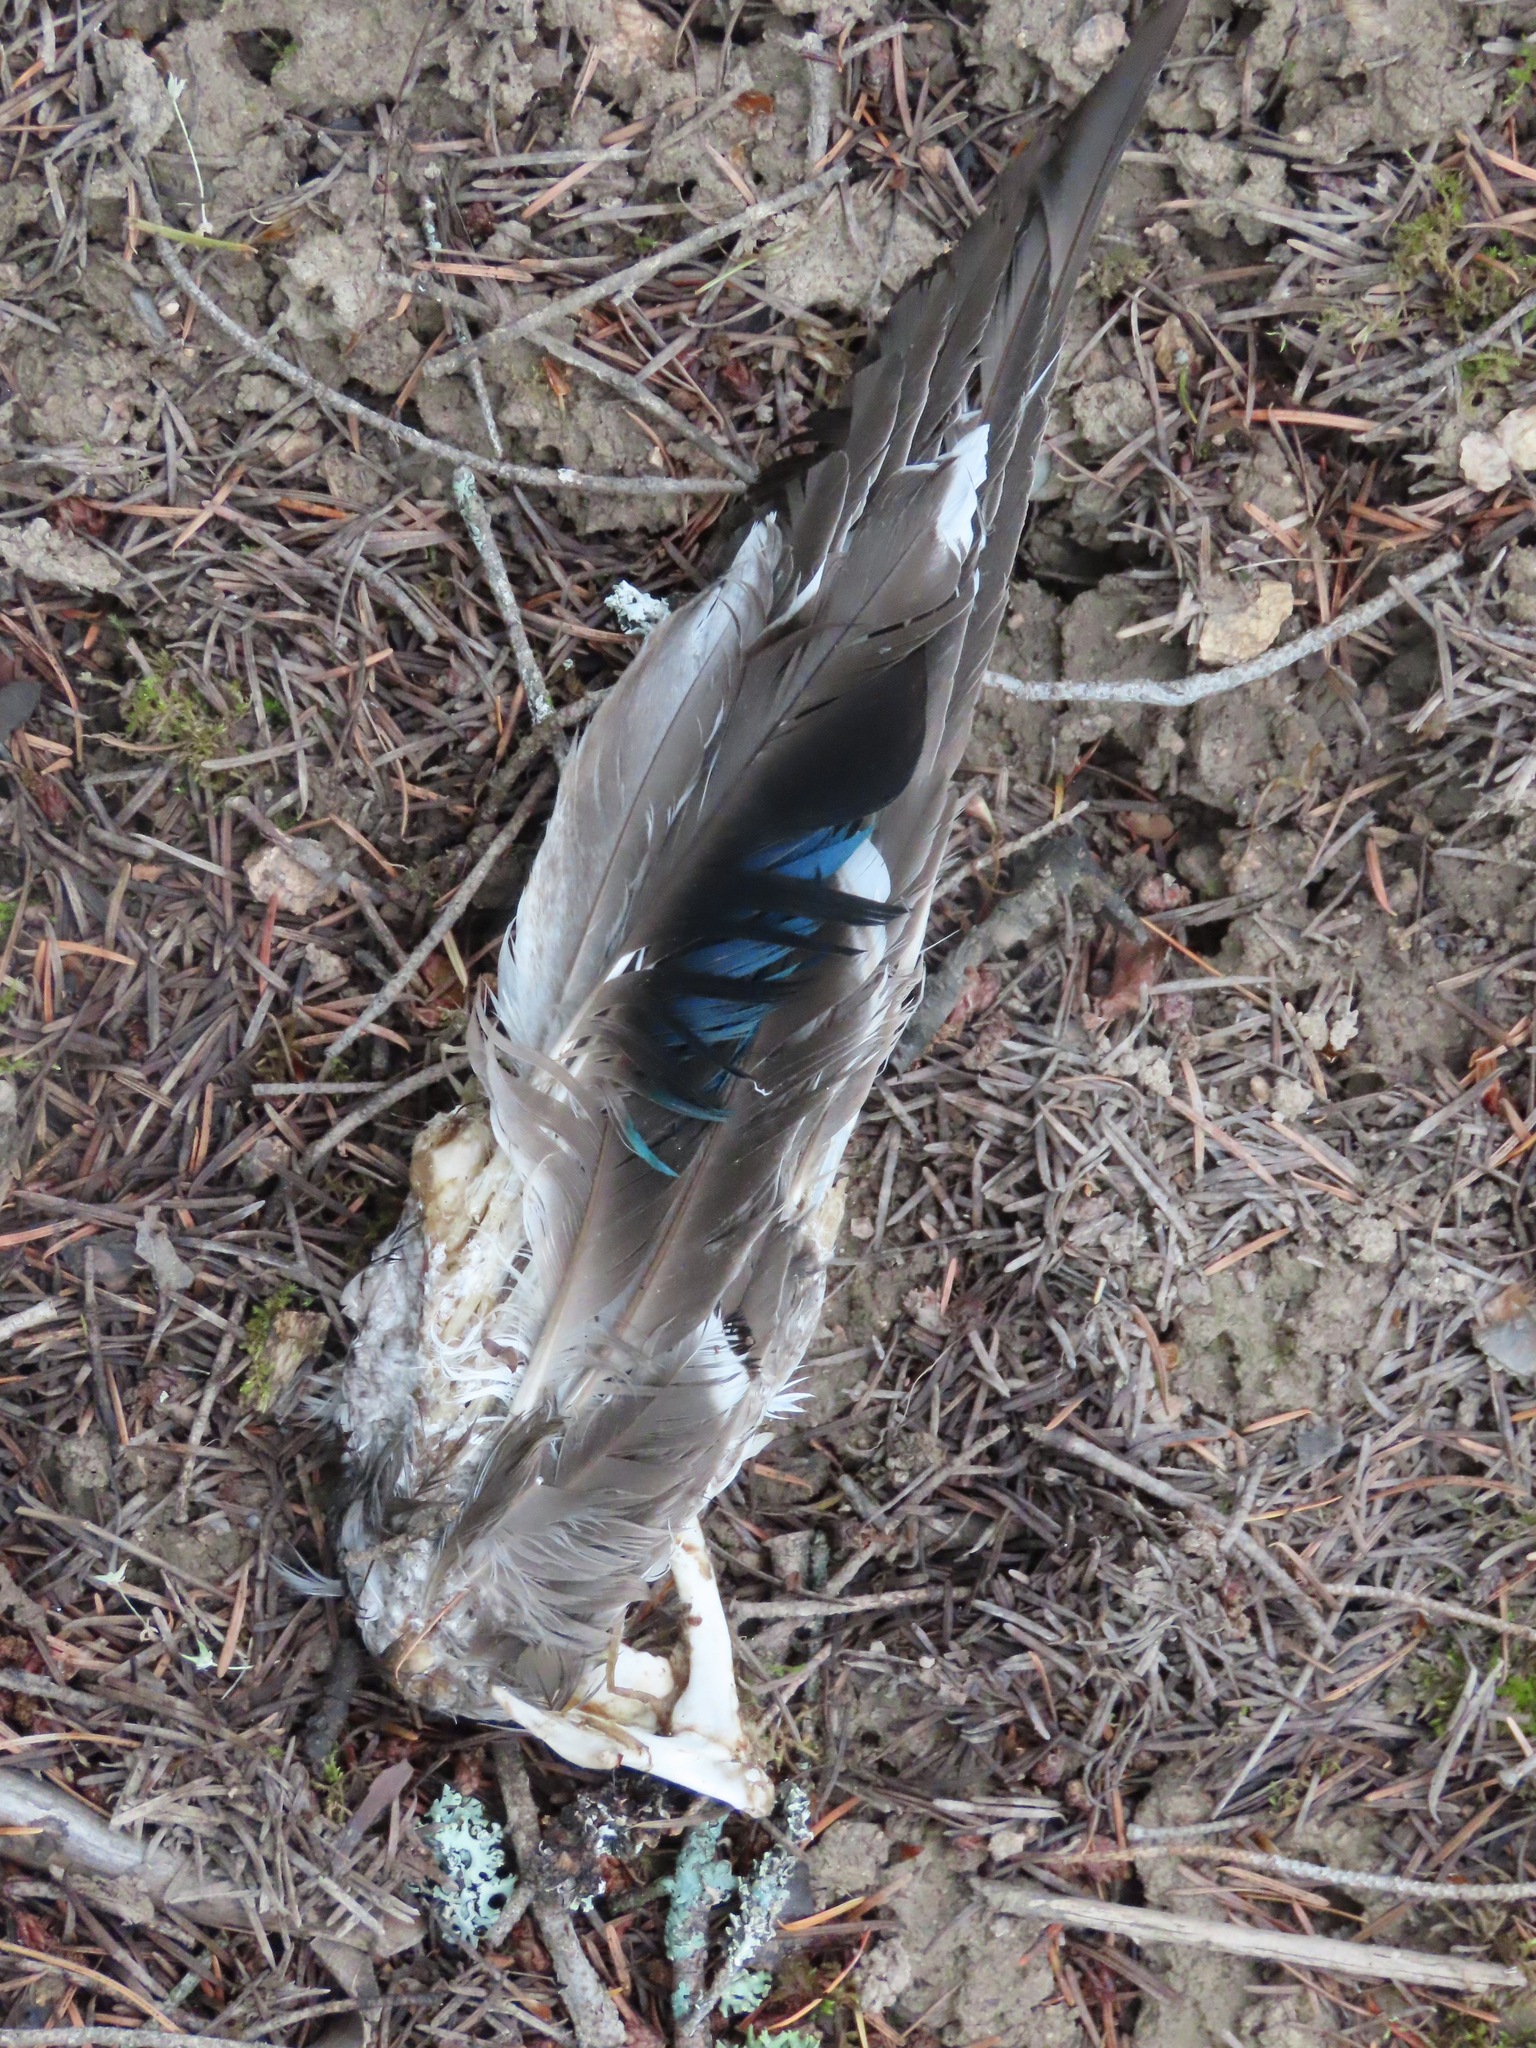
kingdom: Animalia
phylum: Chordata
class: Aves
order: Anseriformes
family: Anatidae
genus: Anas
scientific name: Anas platyrhynchos
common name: Mallard
